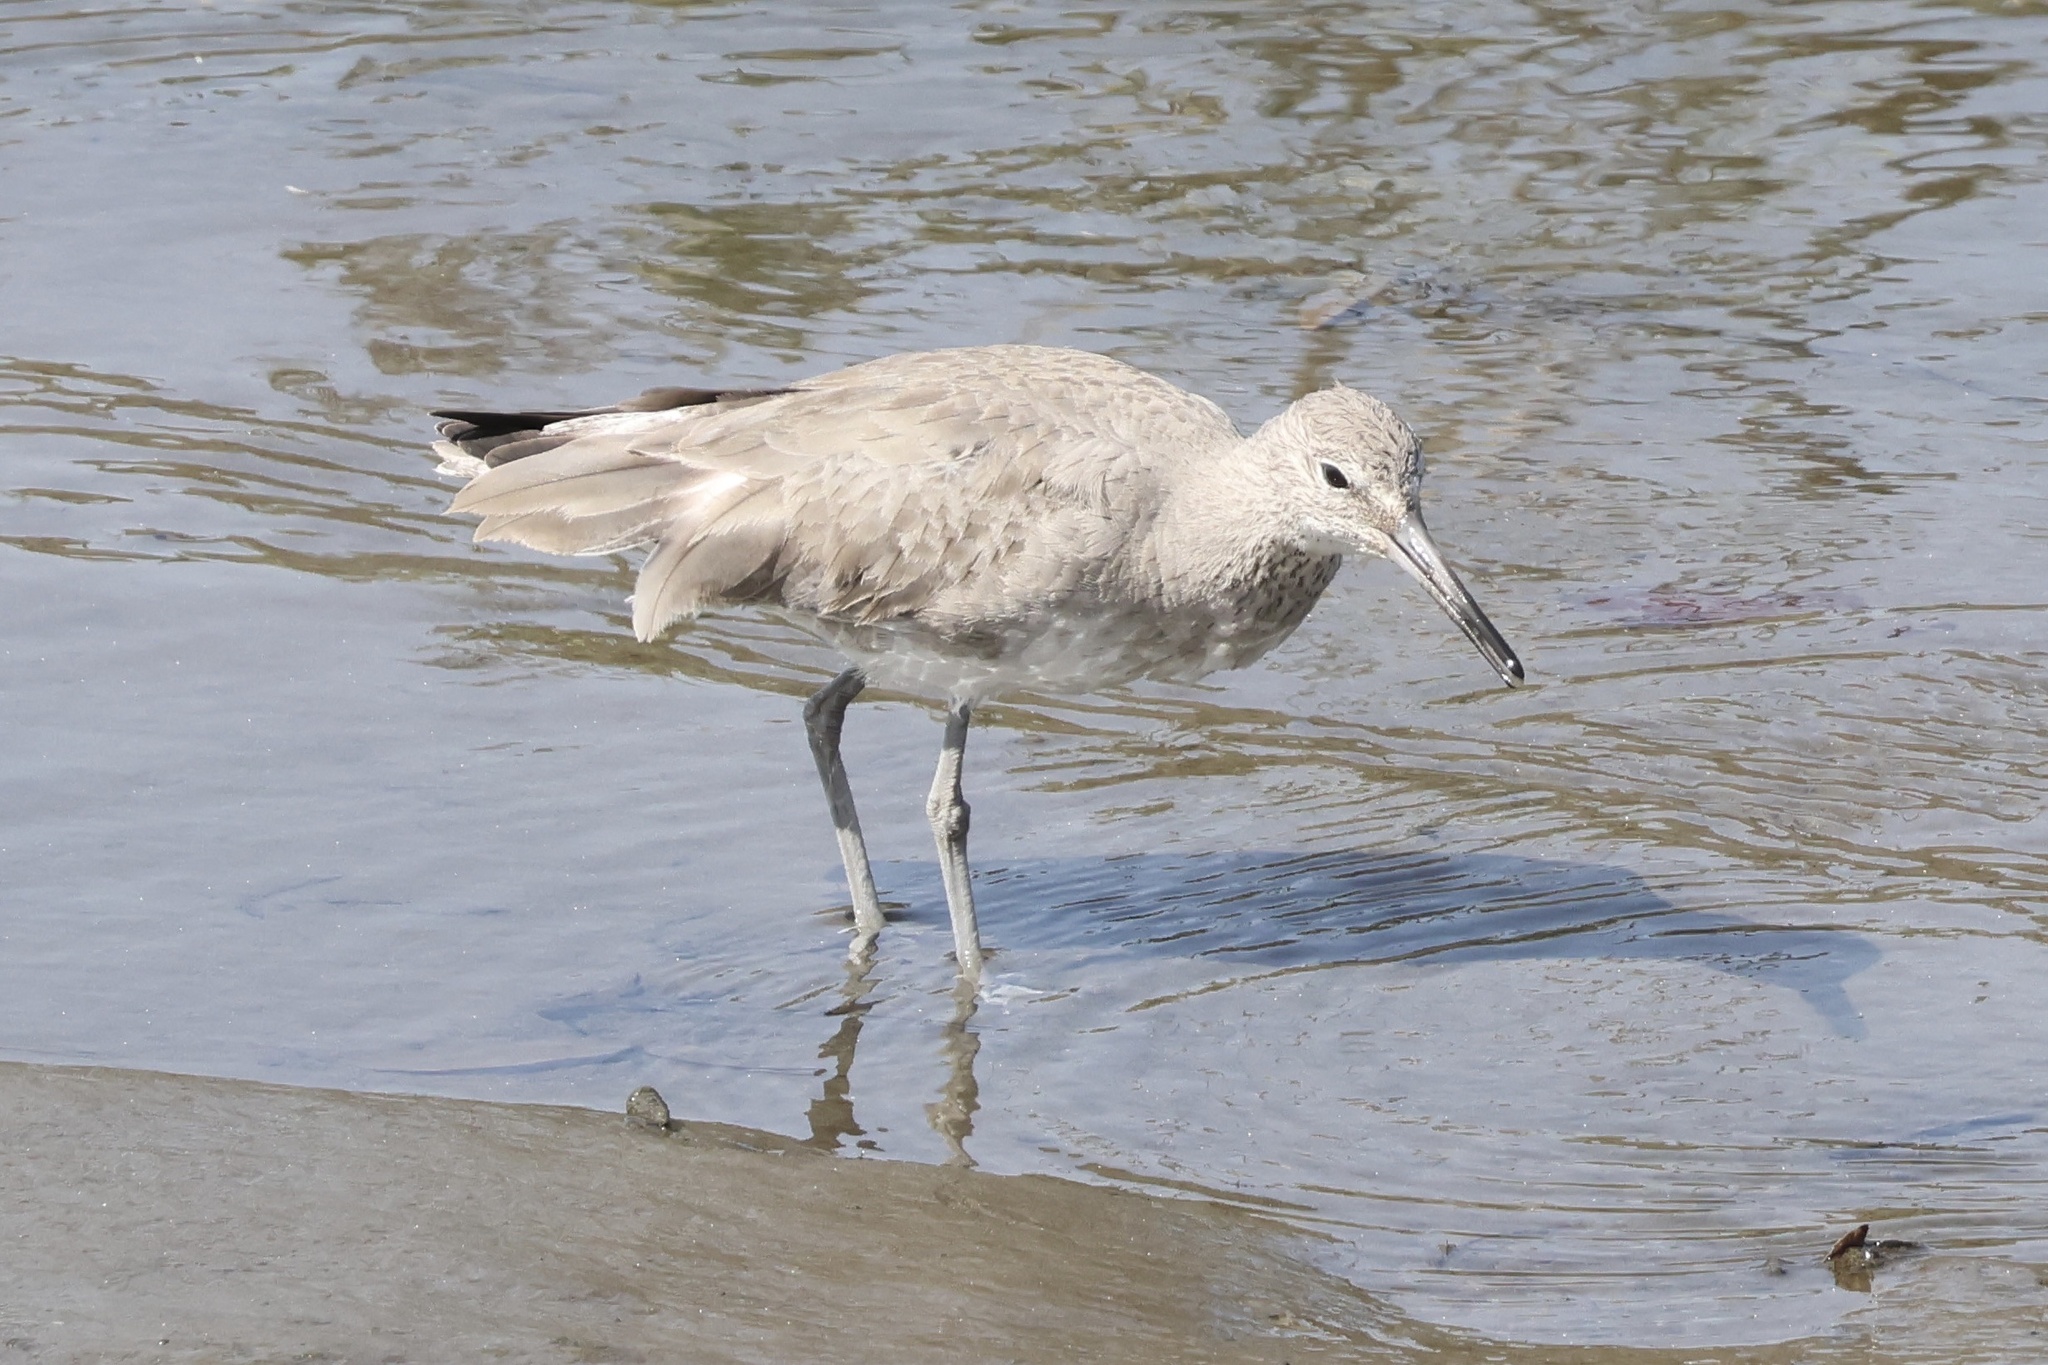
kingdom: Animalia
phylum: Chordata
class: Aves
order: Charadriiformes
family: Scolopacidae
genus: Tringa
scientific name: Tringa semipalmata
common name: Willet
